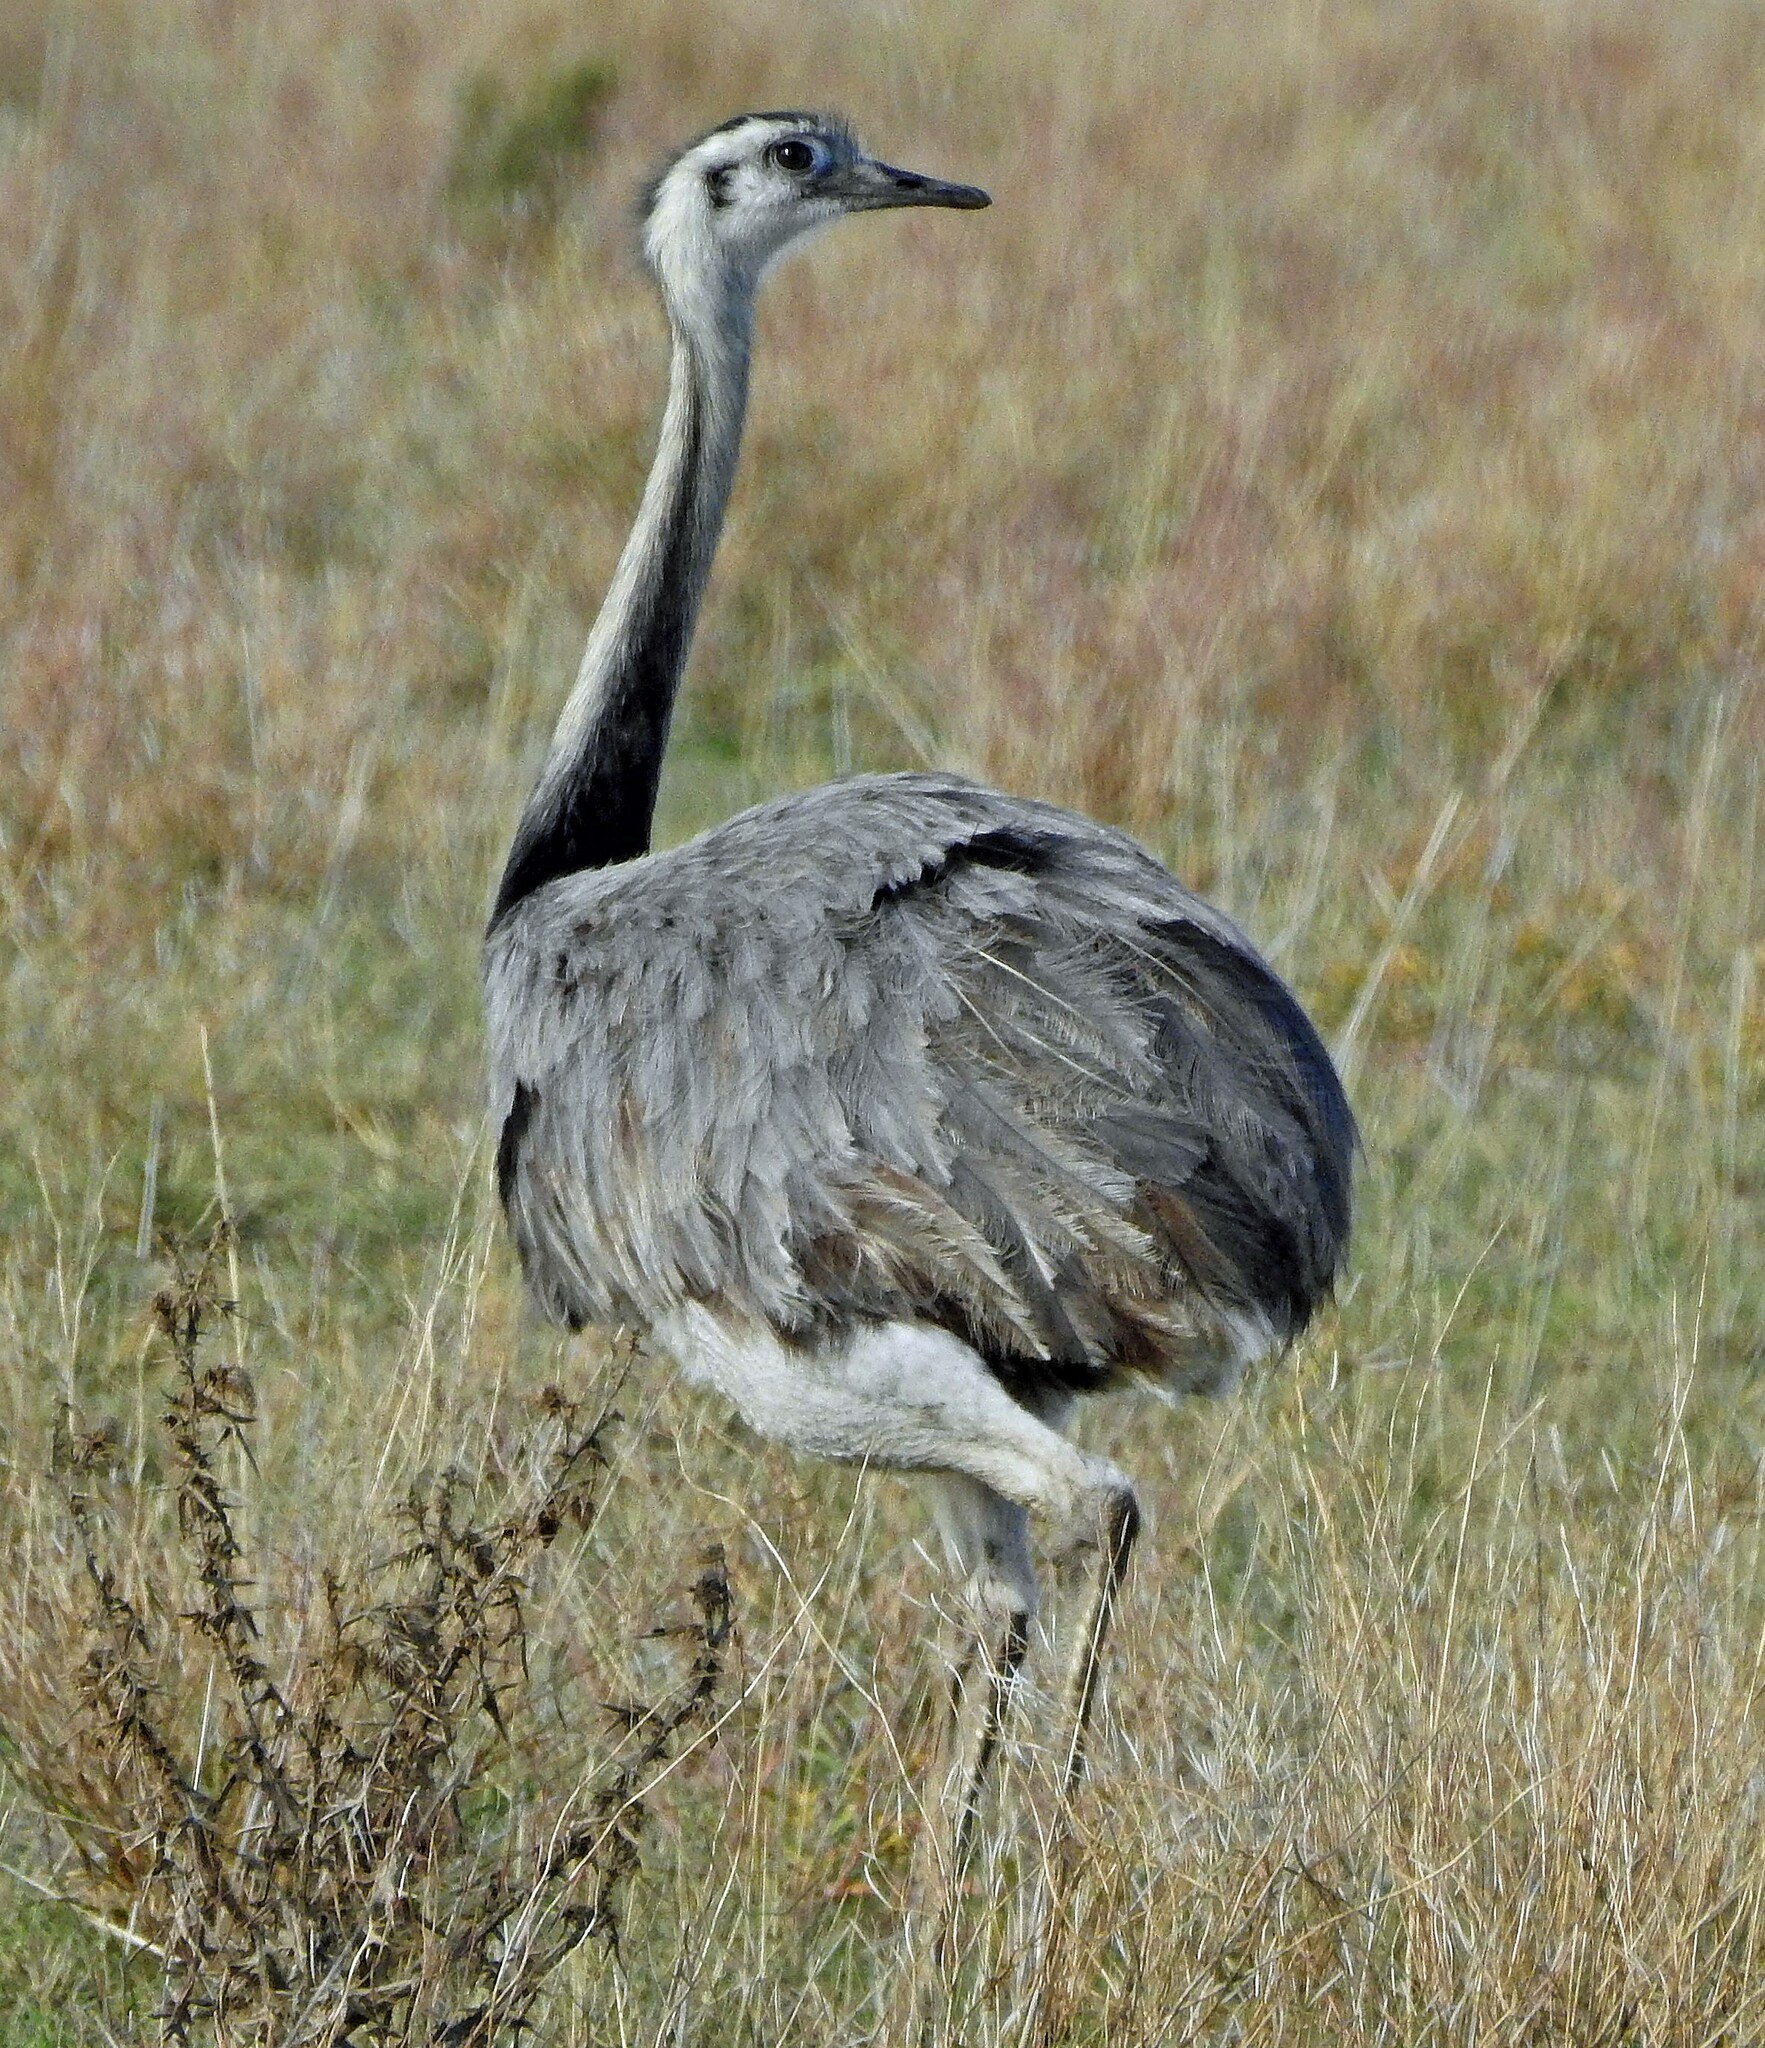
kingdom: Animalia
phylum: Chordata
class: Aves
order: Rheiformes
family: Rheidae
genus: Rhea
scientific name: Rhea americana
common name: Greater rhea
